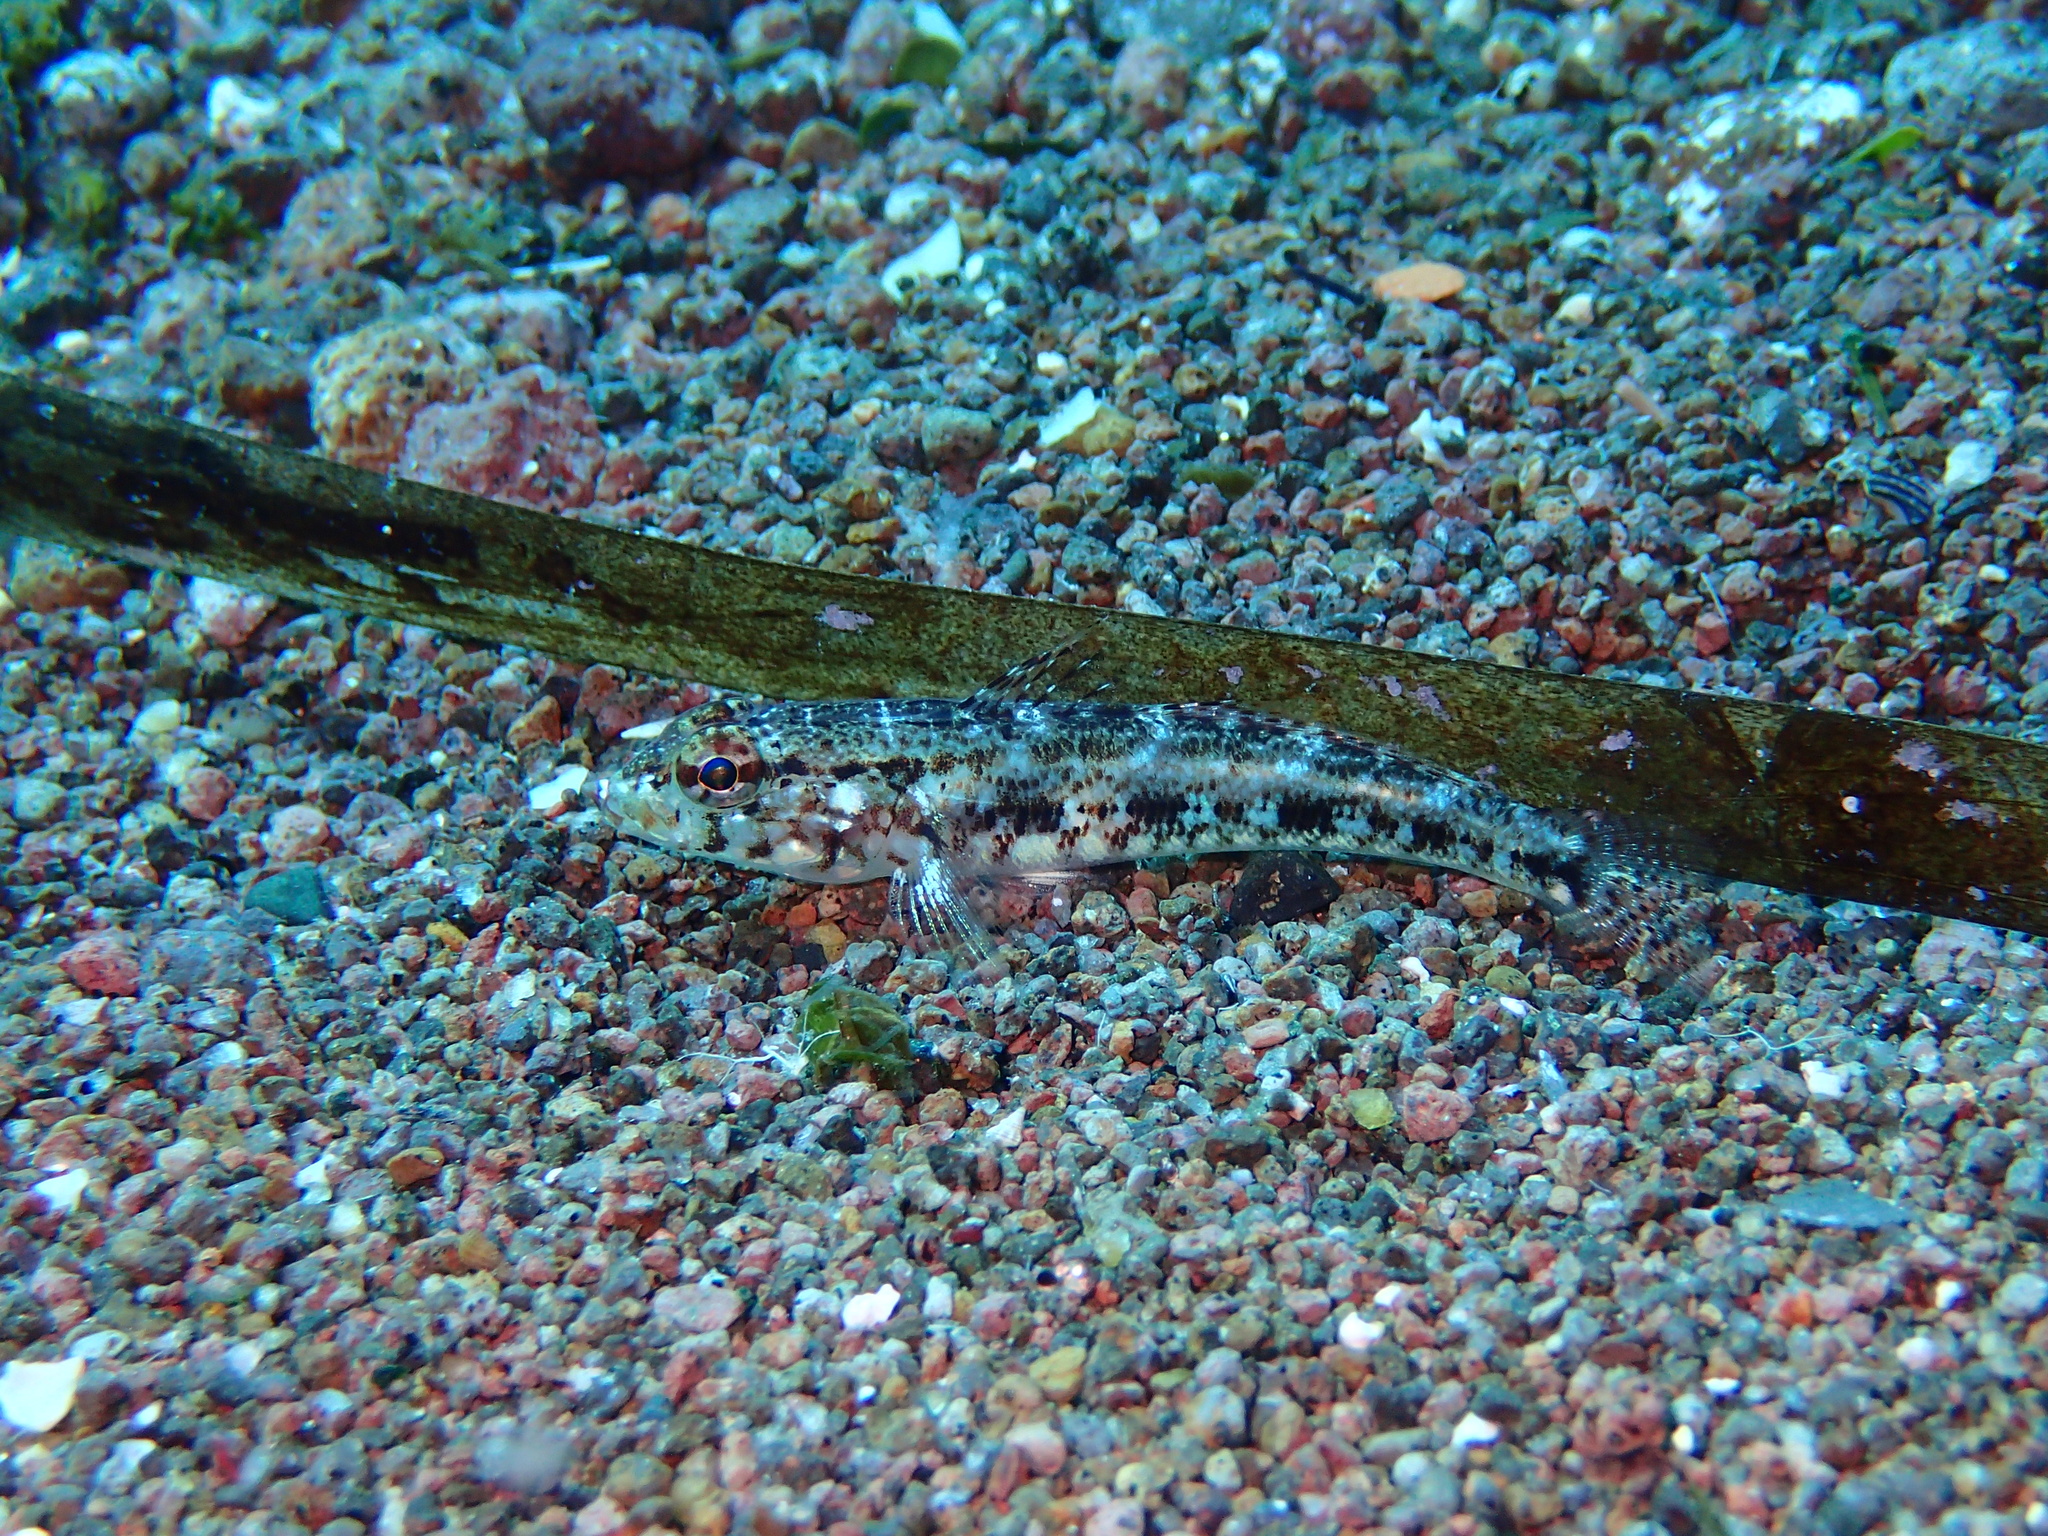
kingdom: Animalia
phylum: Chordata
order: Perciformes
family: Gobiidae
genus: Gobius
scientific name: Gobius geniporus
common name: Slender goby
